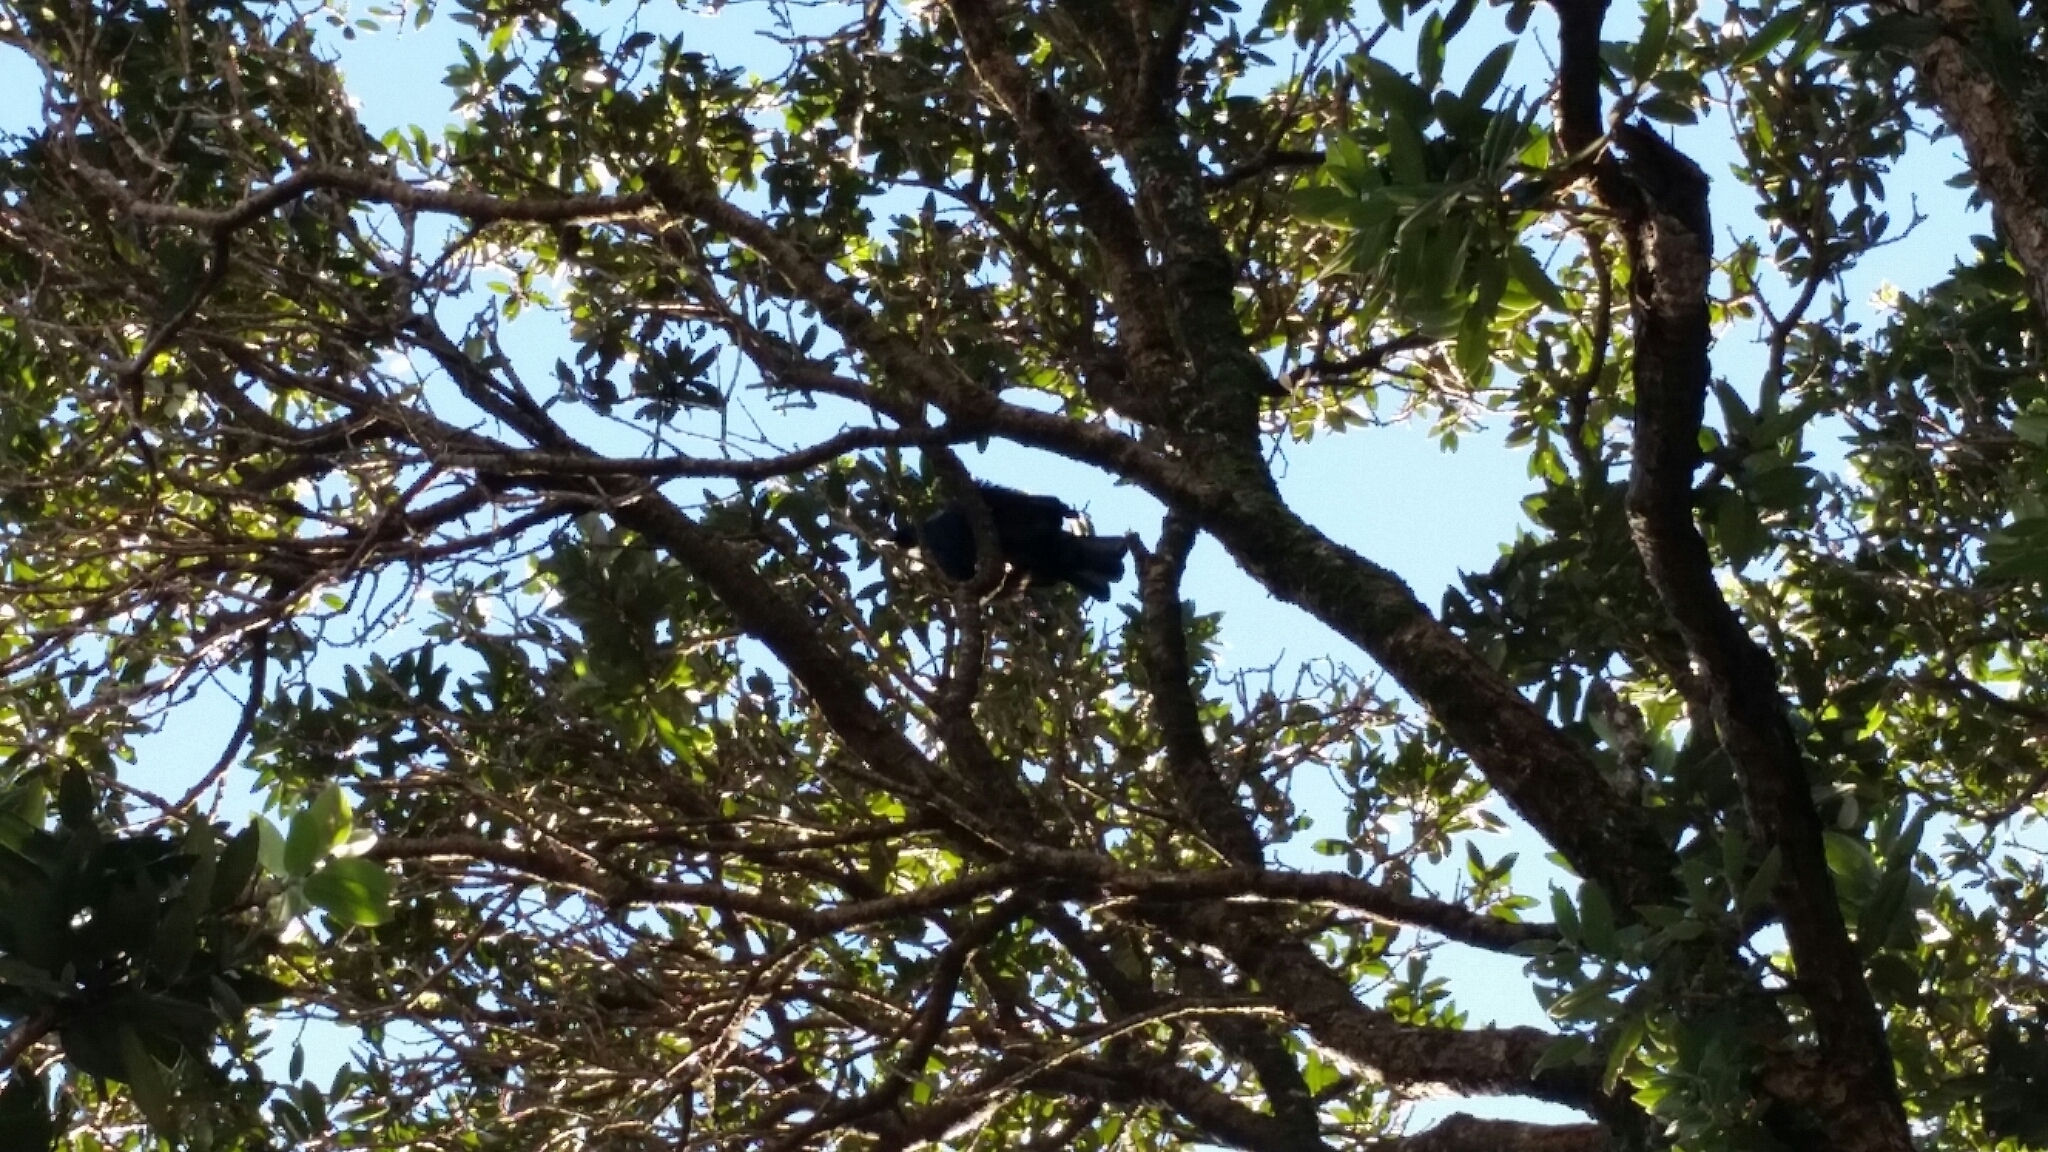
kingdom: Animalia
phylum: Chordata
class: Aves
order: Passeriformes
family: Meliphagidae
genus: Prosthemadera
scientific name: Prosthemadera novaeseelandiae
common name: Tui
